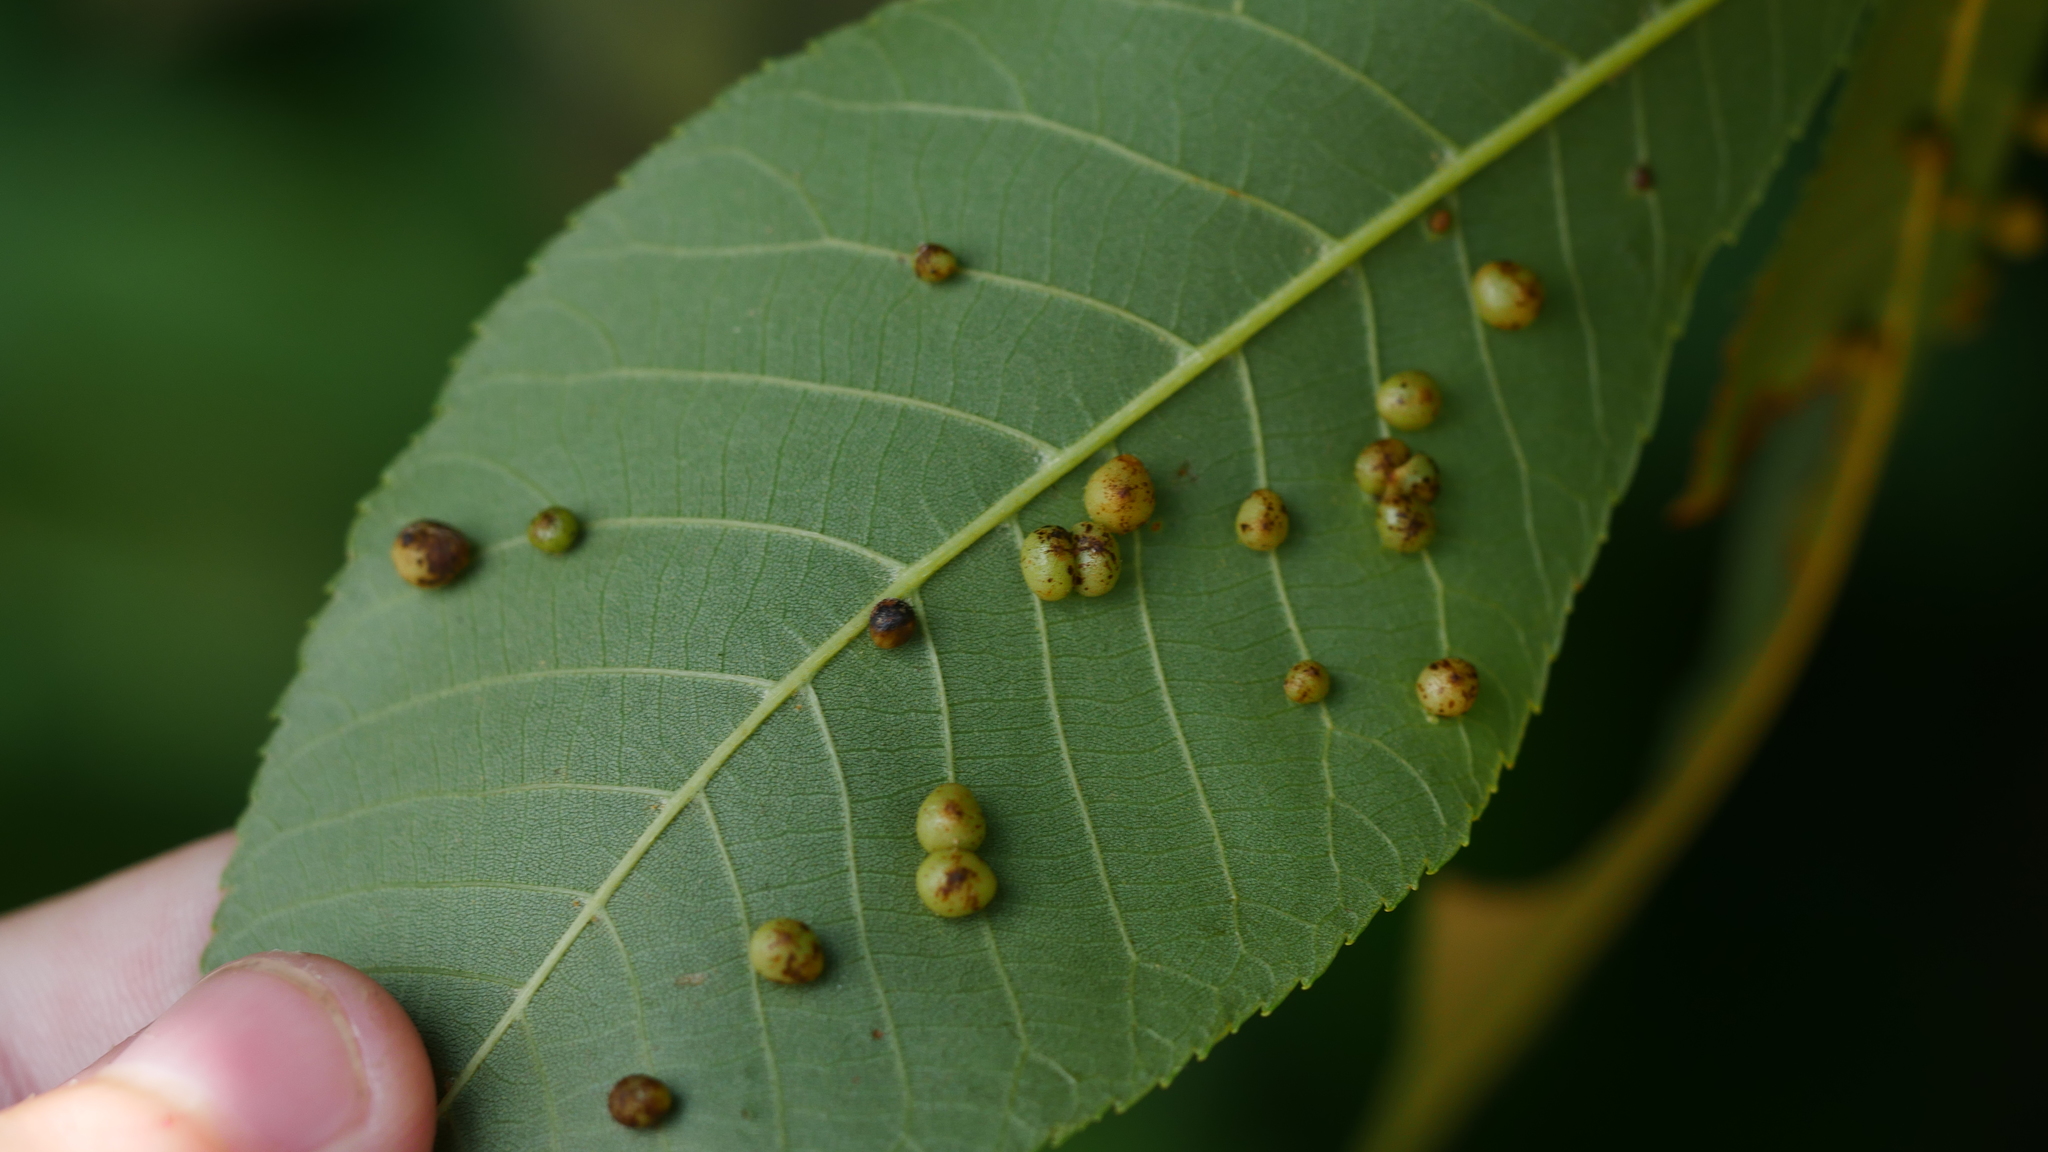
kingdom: Animalia
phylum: Arthropoda
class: Insecta
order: Diptera
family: Cecidomyiidae
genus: Caryomyia
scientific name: Caryomyia caryae
